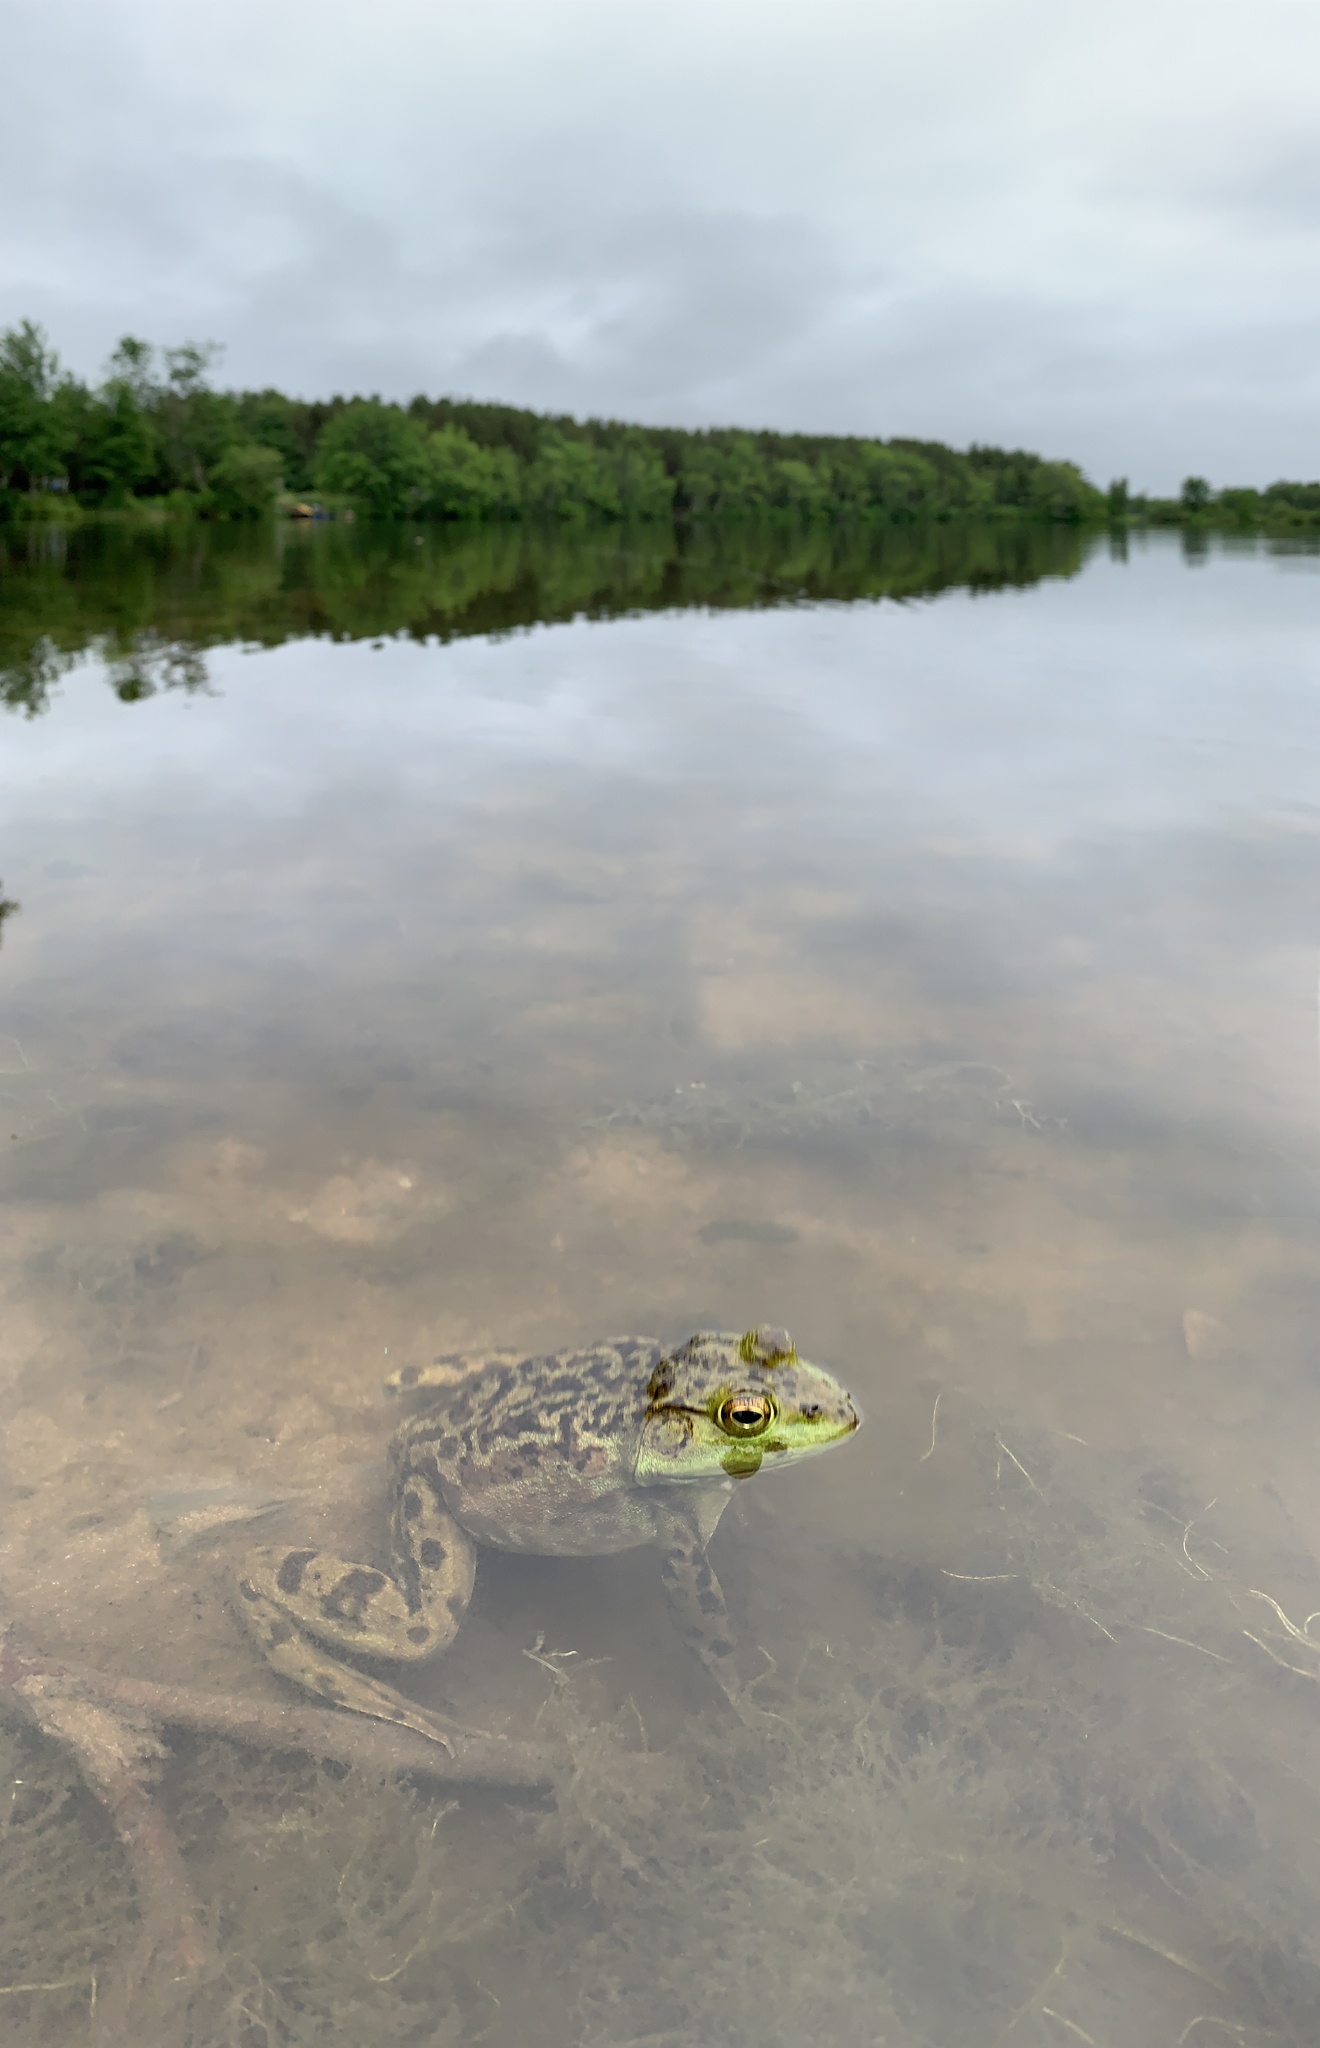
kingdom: Animalia
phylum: Chordata
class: Amphibia
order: Anura
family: Ranidae
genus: Lithobates
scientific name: Lithobates catesbeianus
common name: American bullfrog
